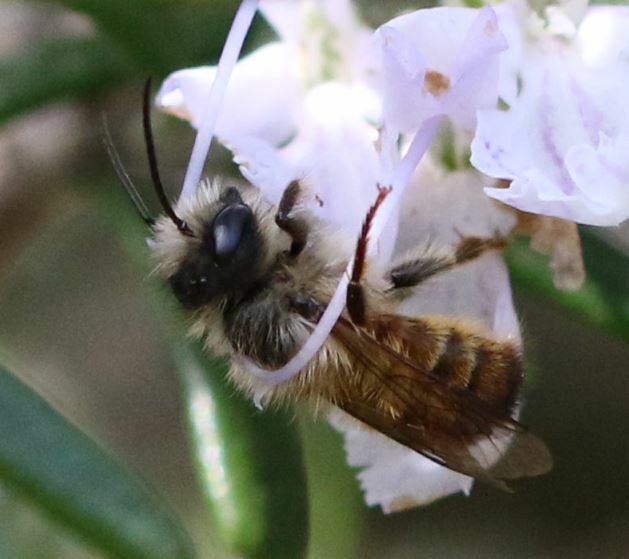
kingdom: Animalia
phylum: Arthropoda
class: Insecta
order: Hymenoptera
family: Megachilidae
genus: Osmia
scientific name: Osmia bicornis
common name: Red mason bee
